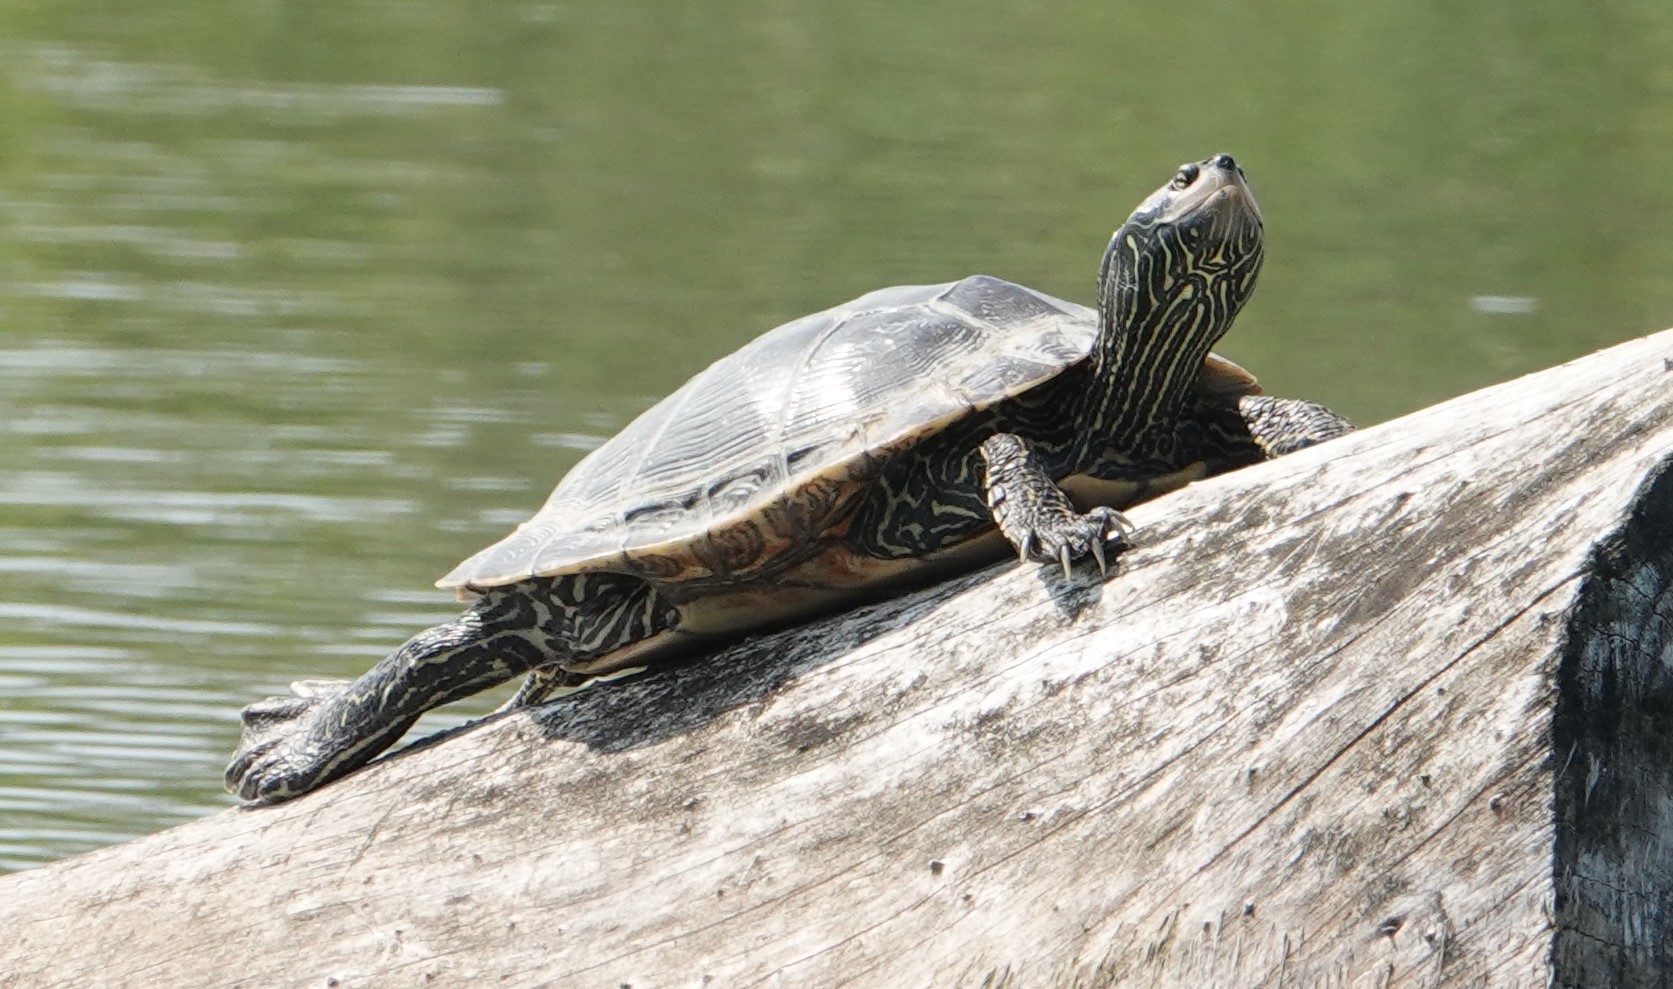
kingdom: Animalia
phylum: Chordata
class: Testudines
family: Emydidae
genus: Graptemys
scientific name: Graptemys geographica
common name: Common map turtle
